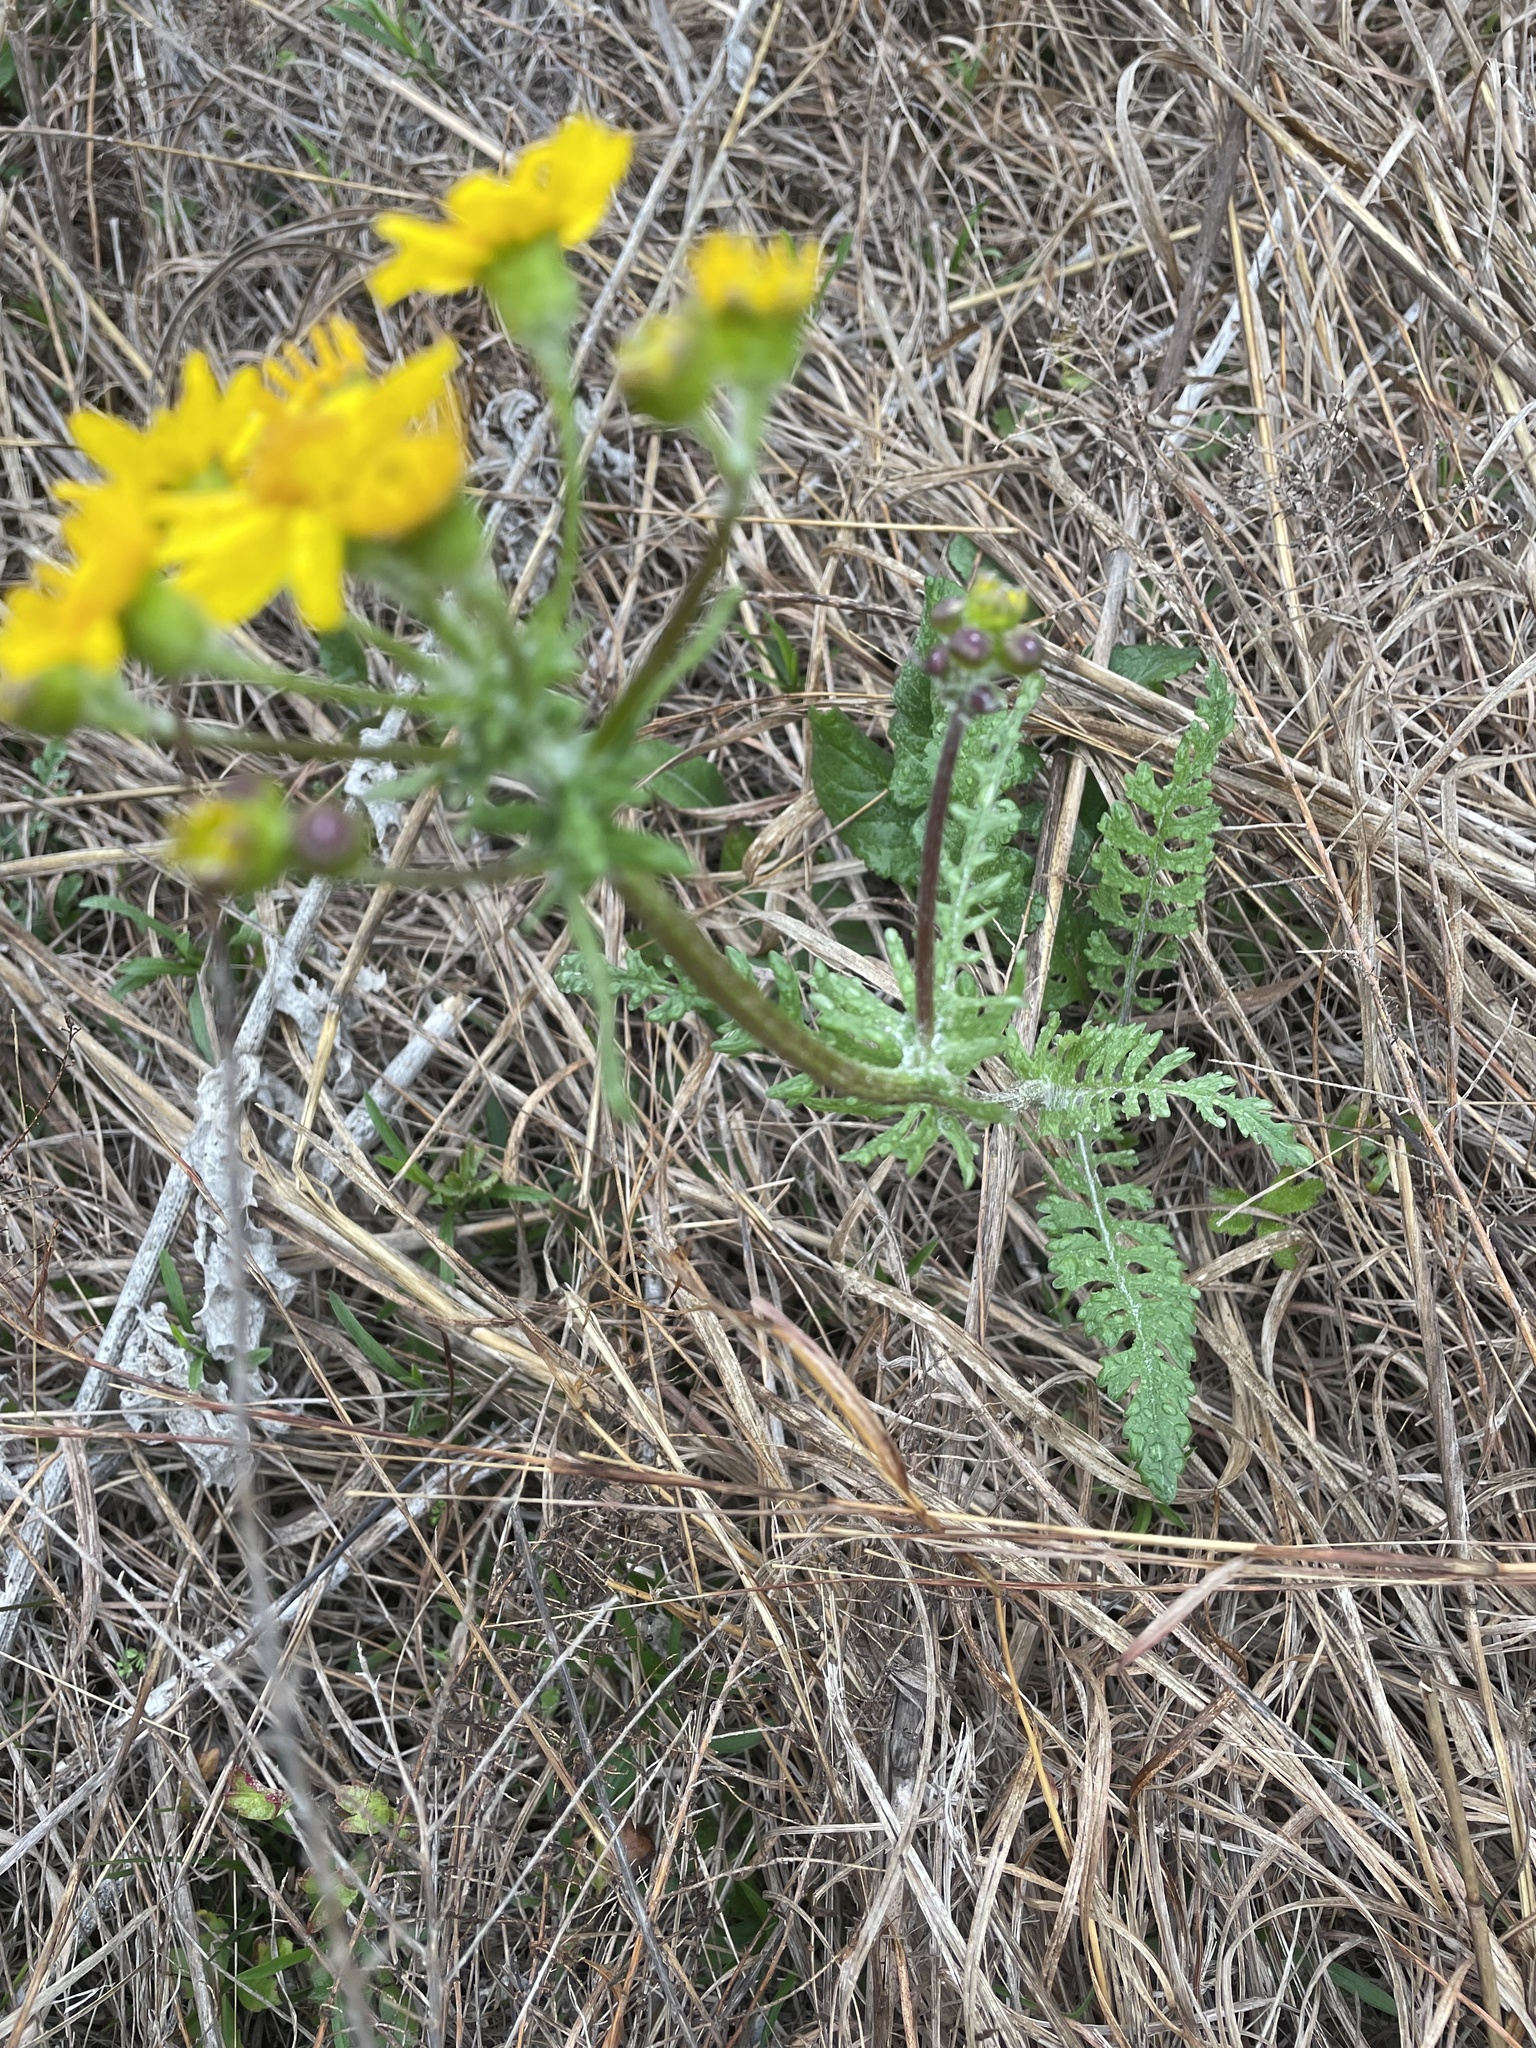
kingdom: Plantae
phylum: Tracheophyta
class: Magnoliopsida
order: Asterales
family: Asteraceae
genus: Packera
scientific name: Packera tampicana
